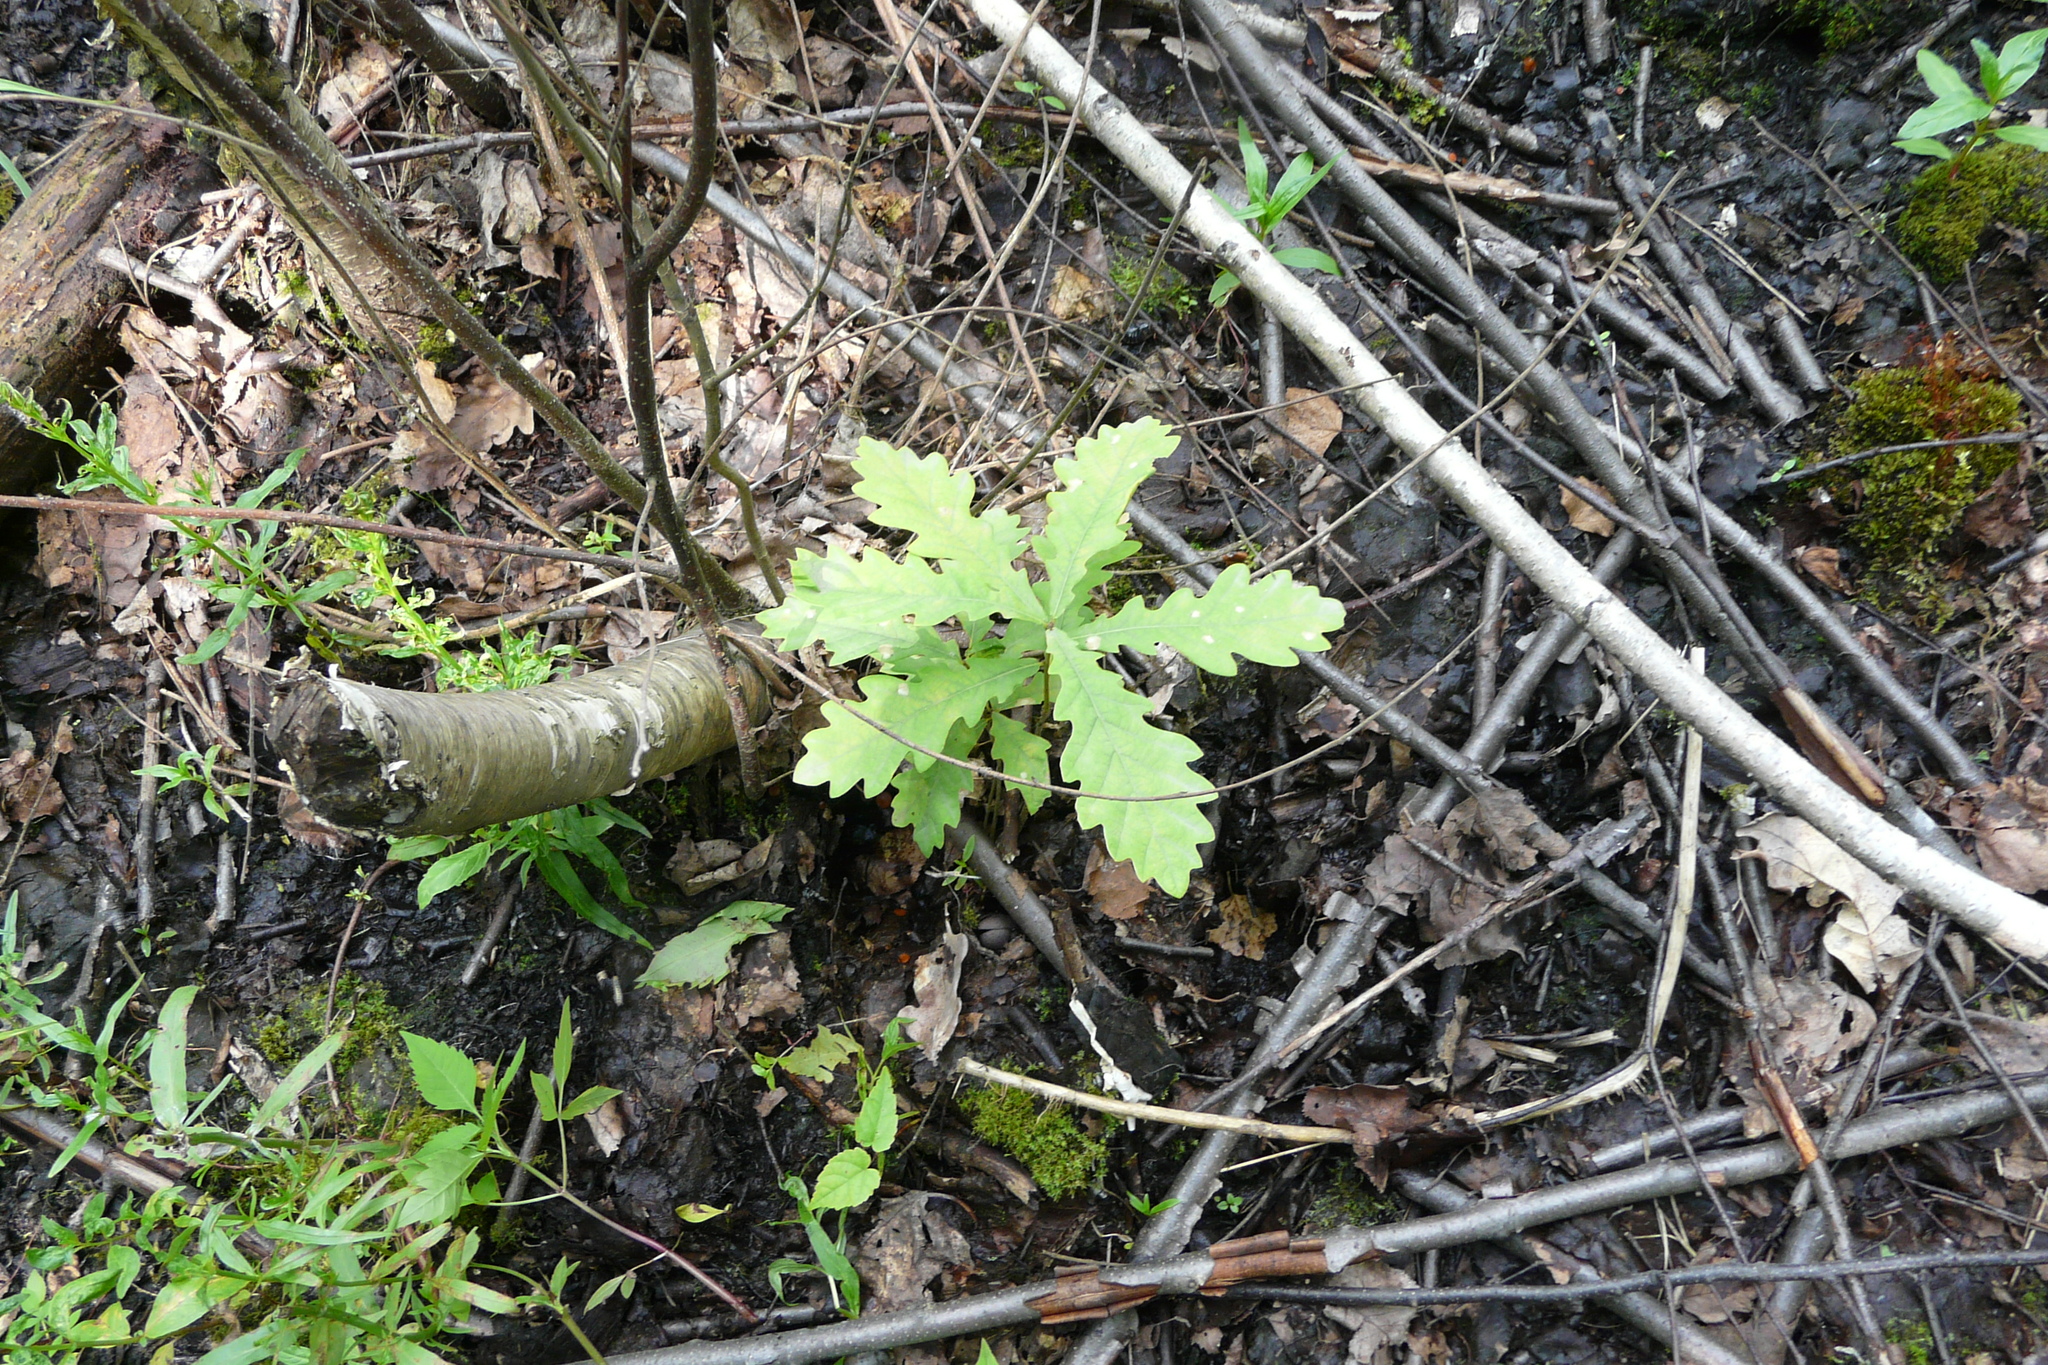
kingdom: Plantae
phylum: Tracheophyta
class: Magnoliopsida
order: Fagales
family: Fagaceae
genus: Quercus
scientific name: Quercus robur
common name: Pedunculate oak
